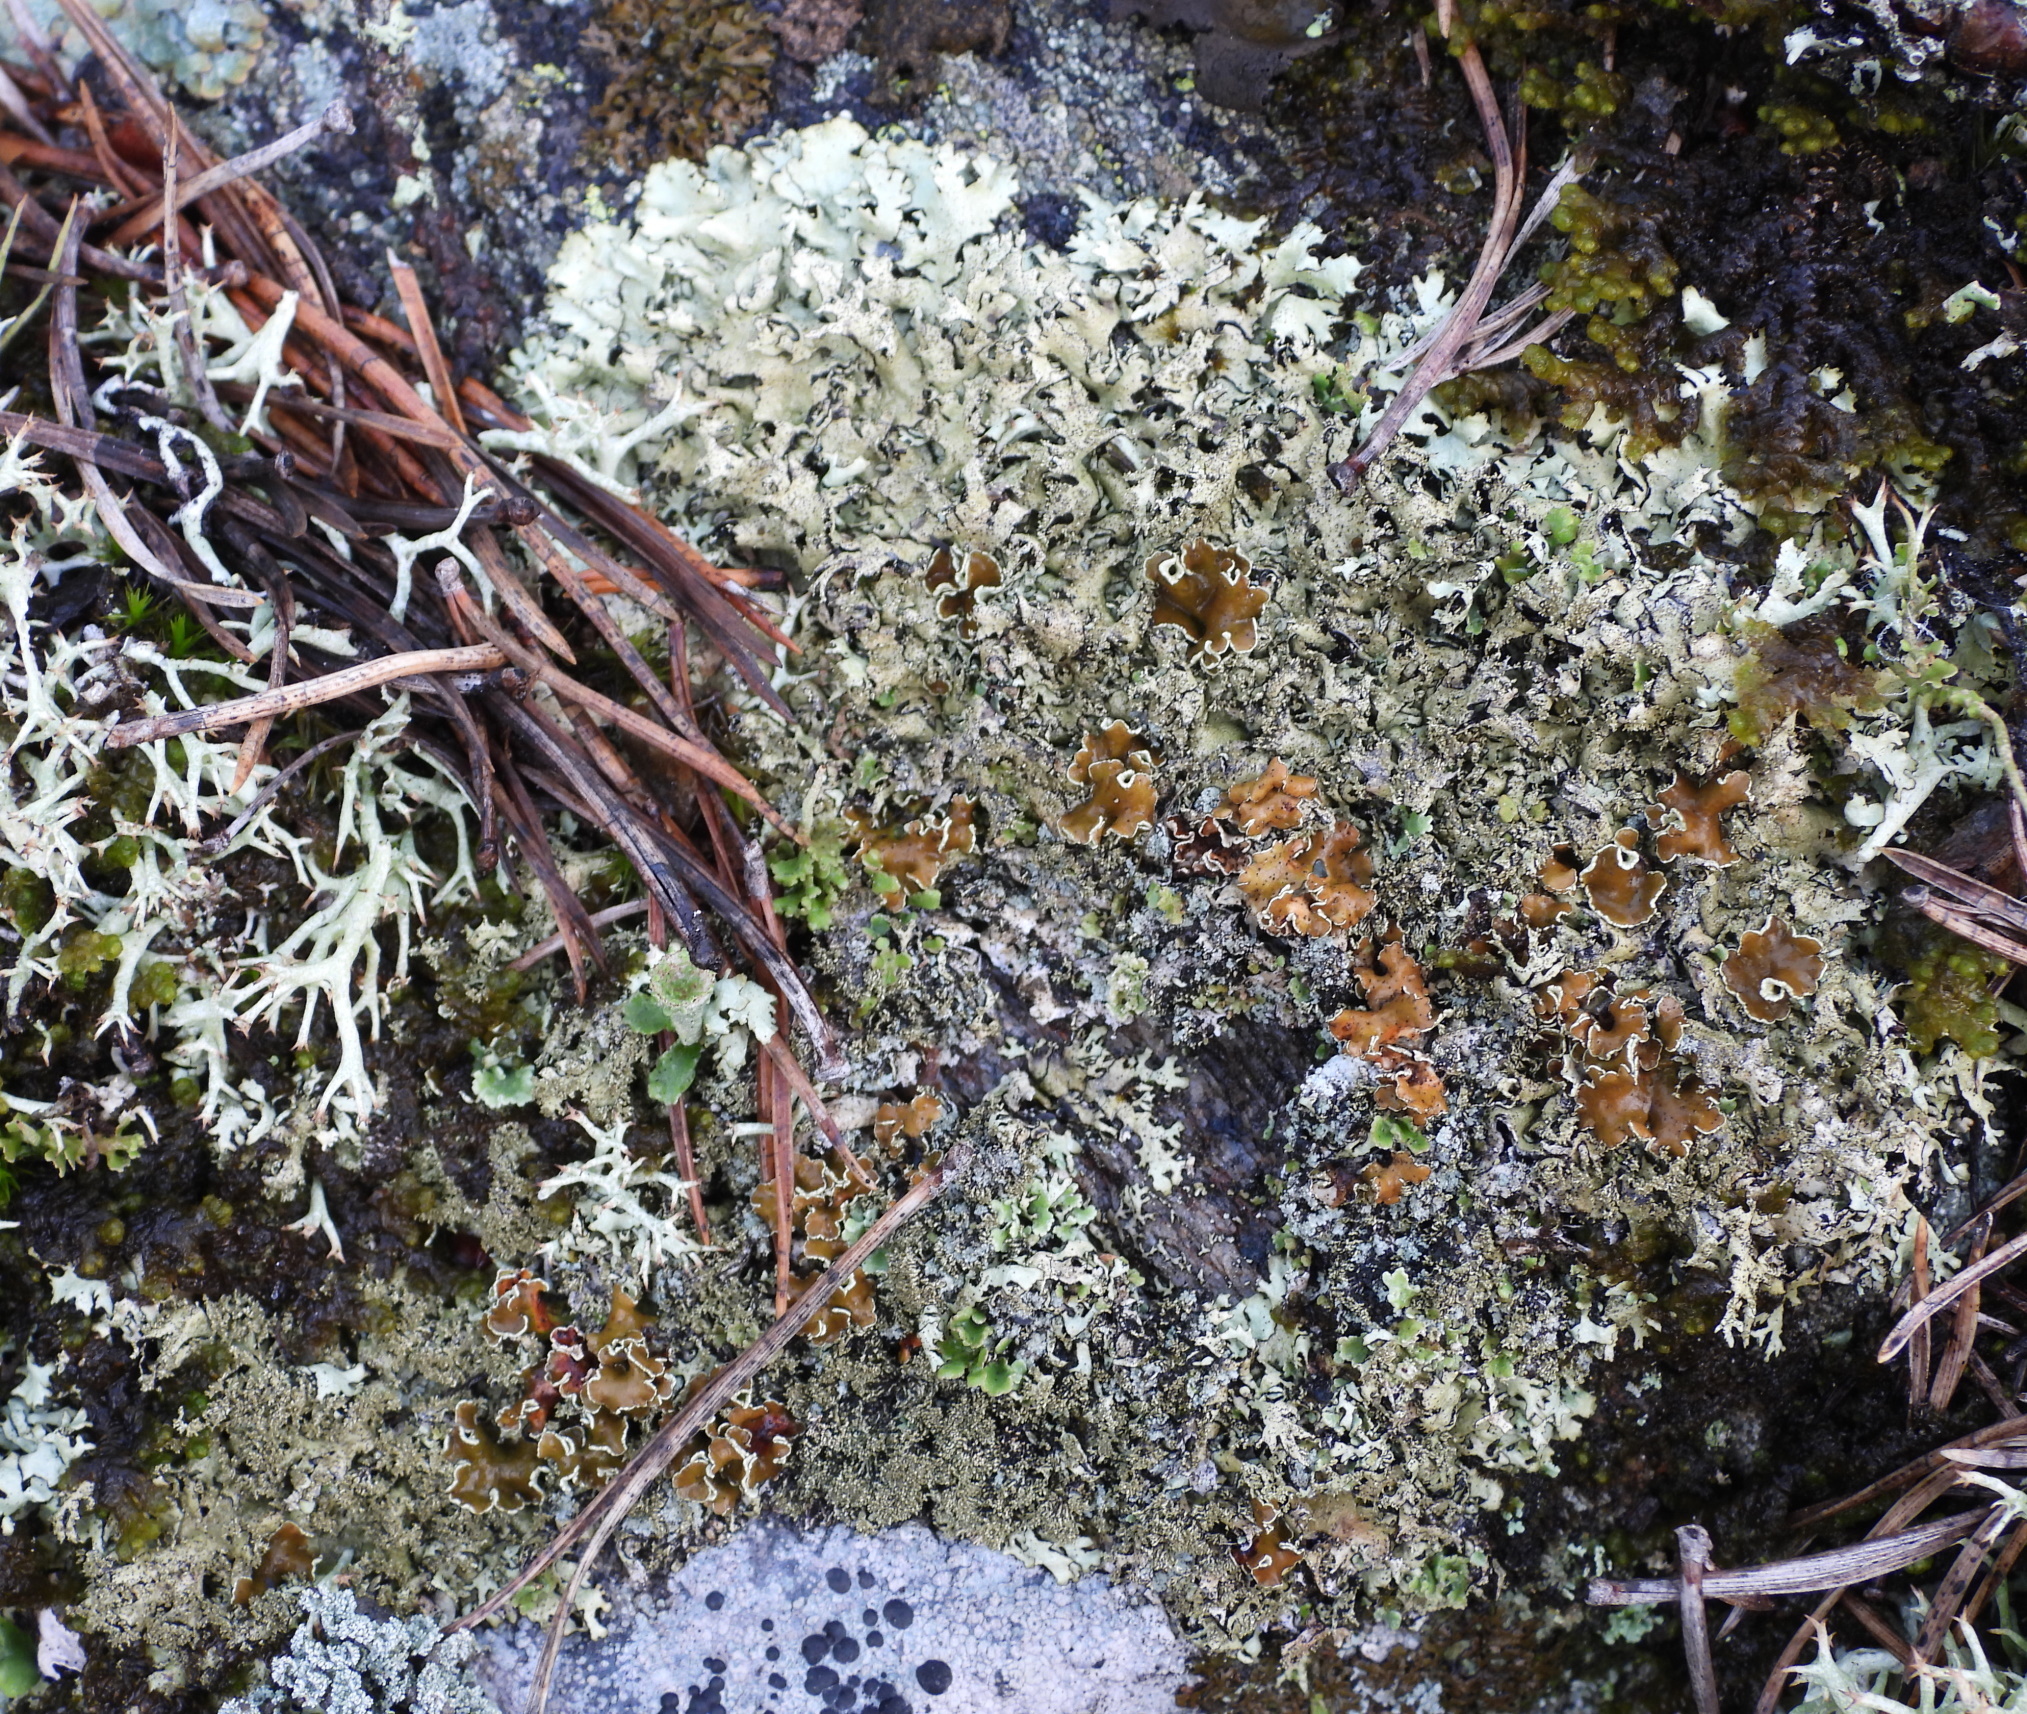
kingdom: Fungi
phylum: Ascomycota
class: Lecanoromycetes
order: Lecanorales
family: Parmeliaceae
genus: Xanthoparmelia
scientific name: Xanthoparmelia conspersa
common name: Peppered rock shield
